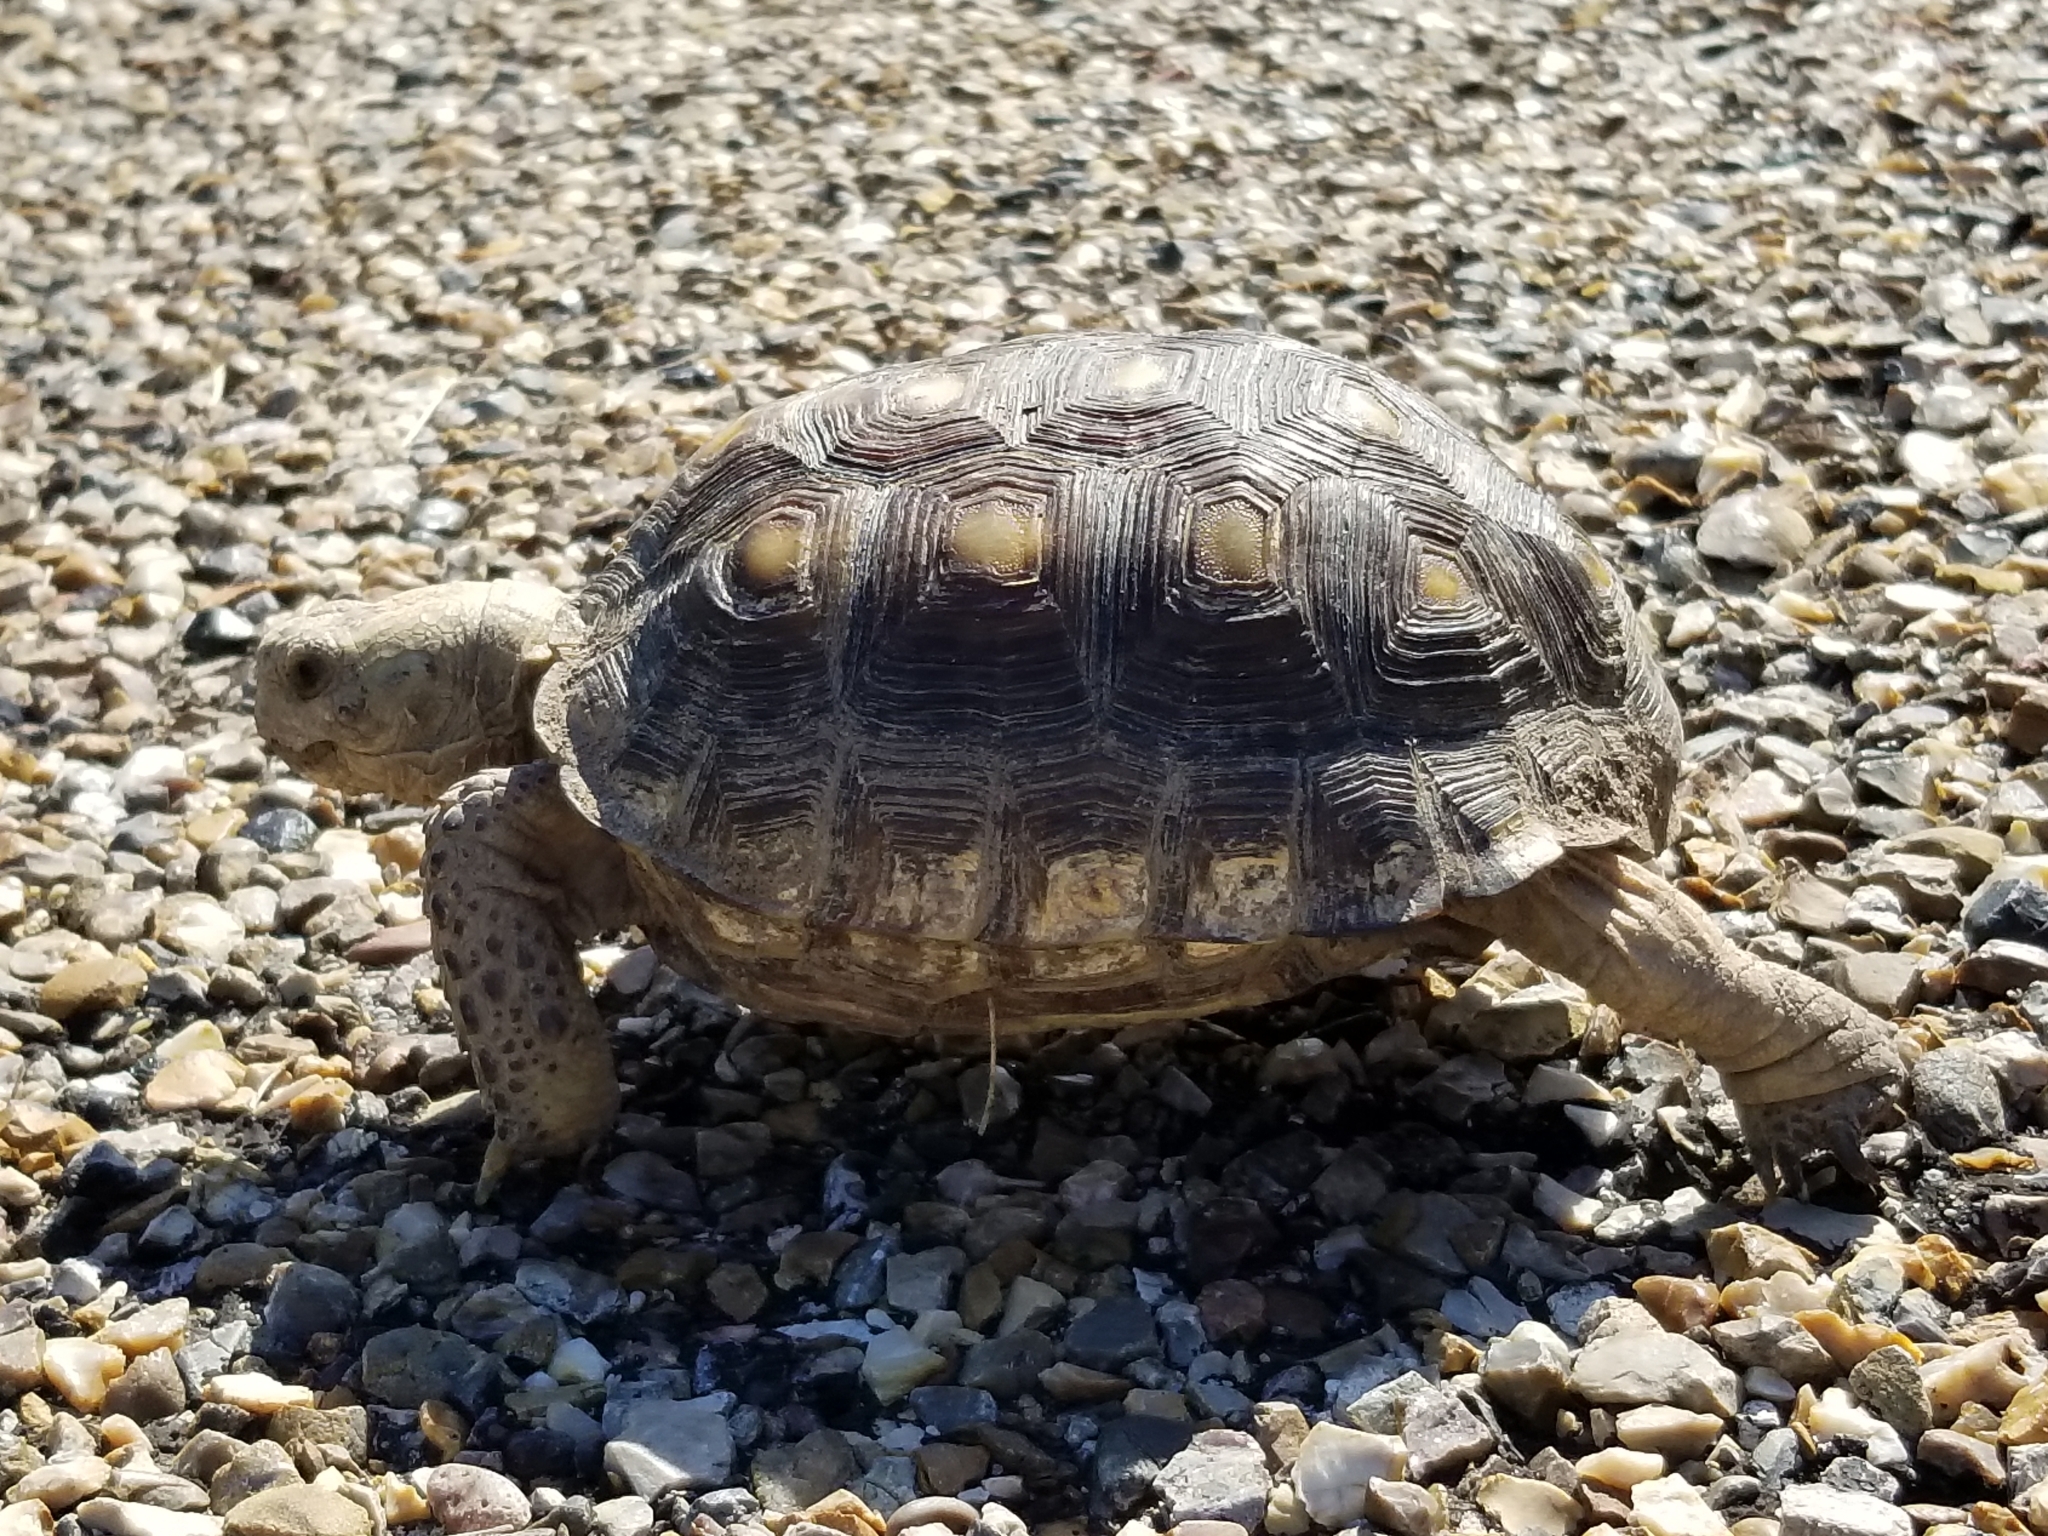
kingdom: Animalia
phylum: Chordata
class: Testudines
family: Testudinidae
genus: Gopherus
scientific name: Gopherus berlandieri
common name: Texas (gopher )tortoise
